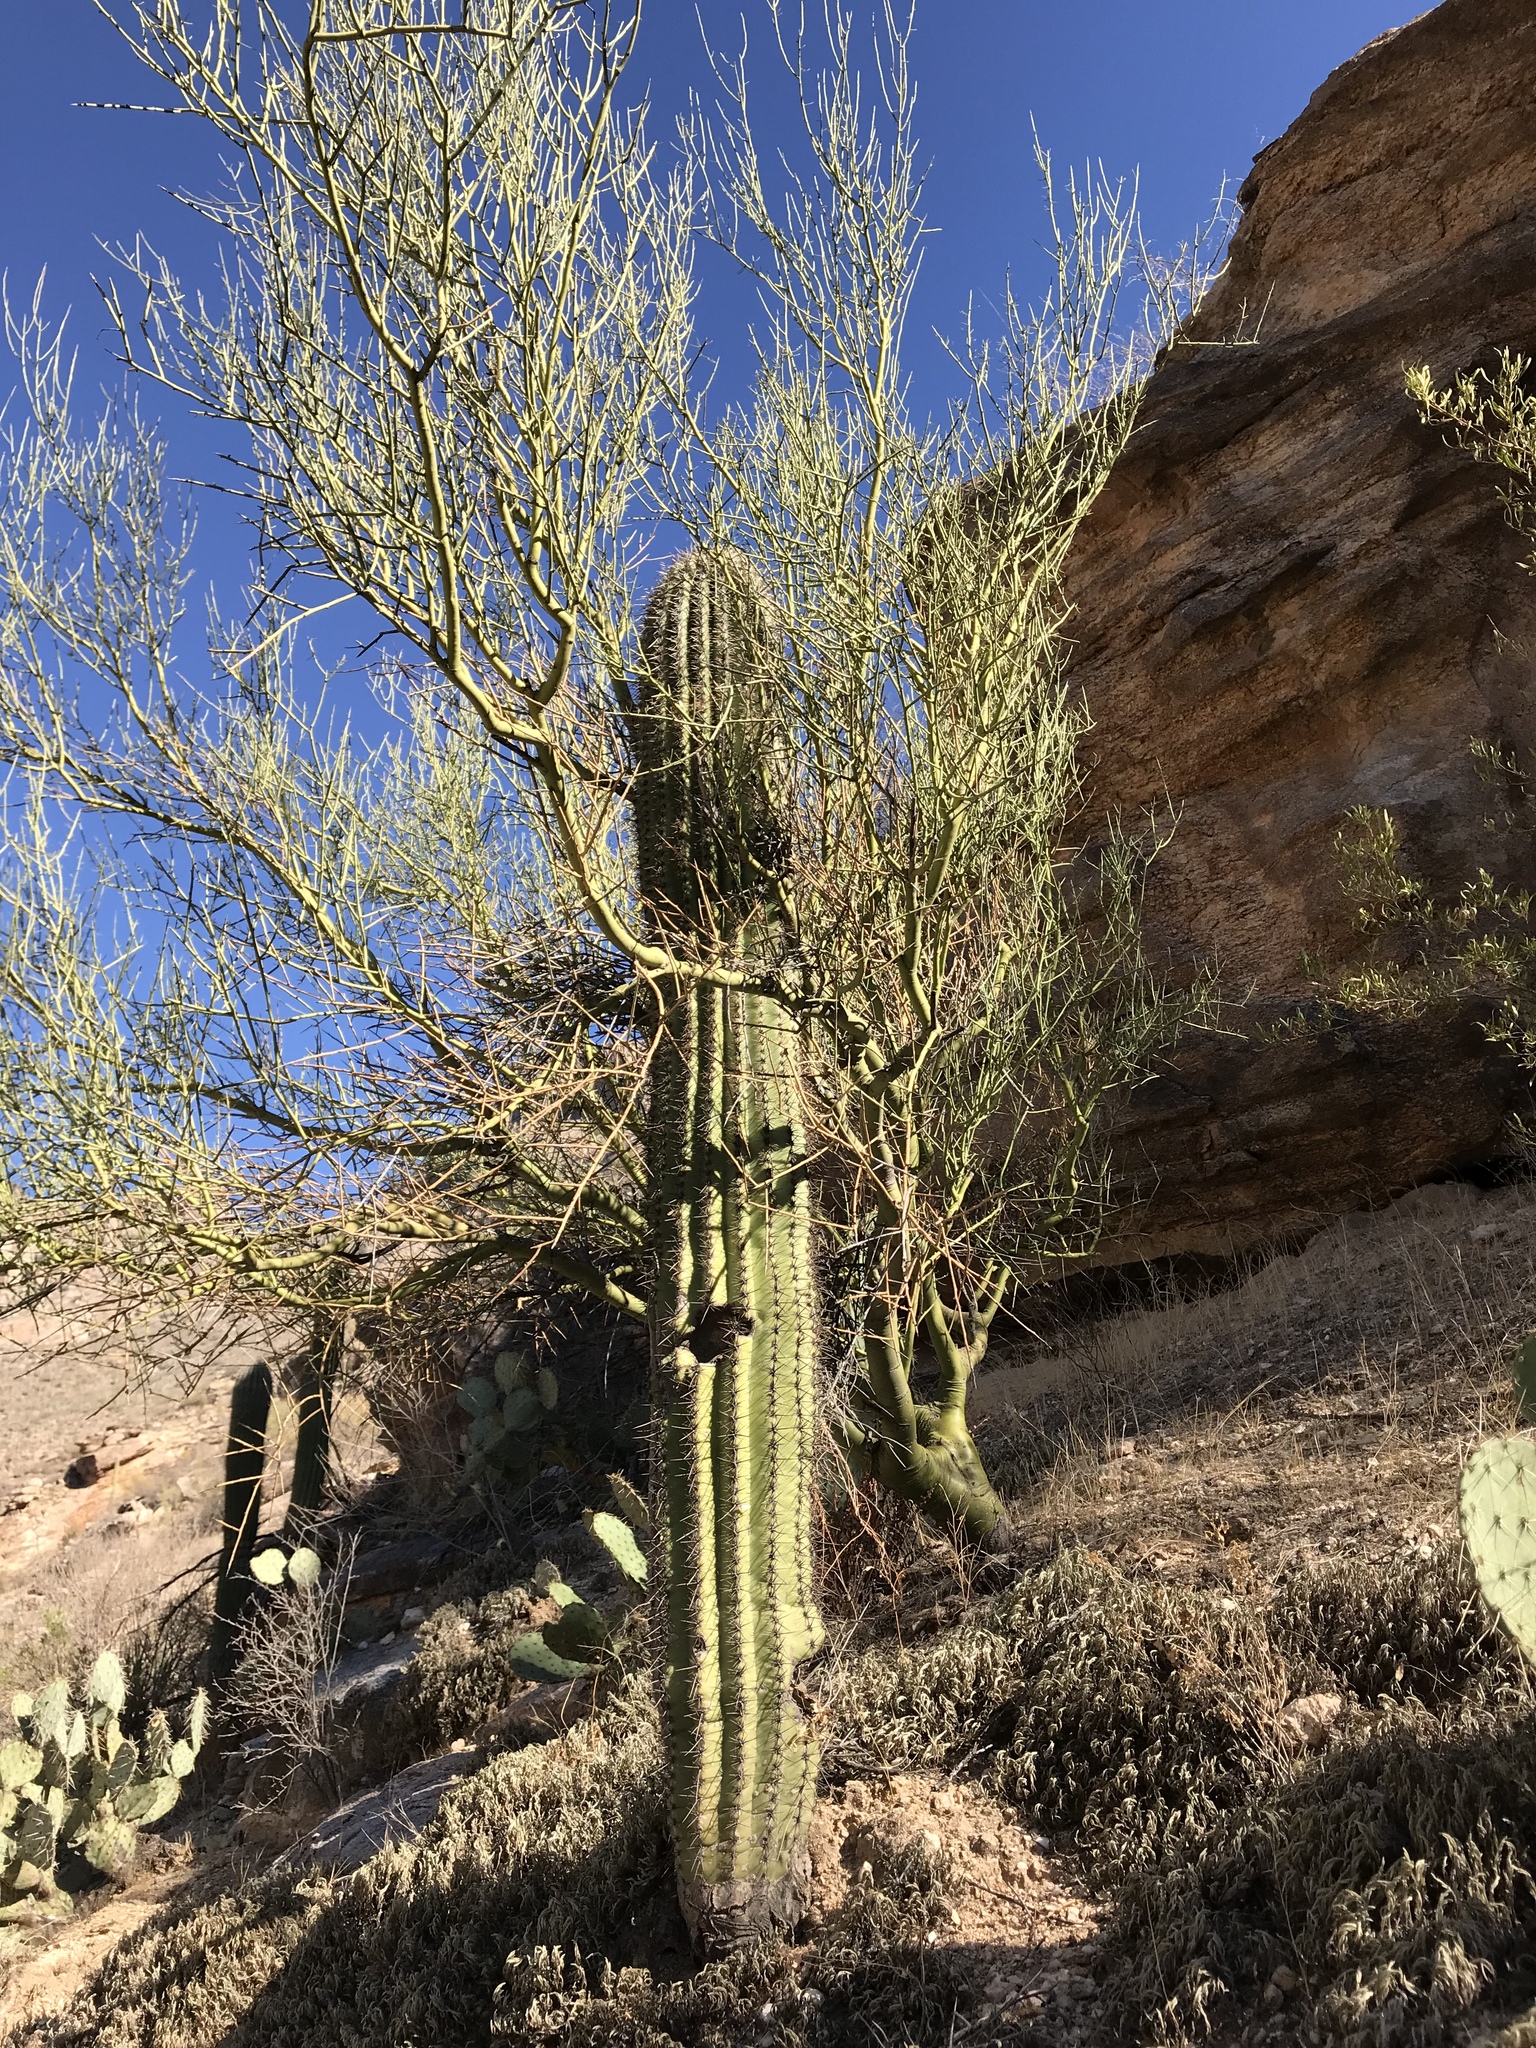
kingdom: Plantae
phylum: Tracheophyta
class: Magnoliopsida
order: Caryophyllales
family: Cactaceae
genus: Carnegiea
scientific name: Carnegiea gigantea
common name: Saguaro
